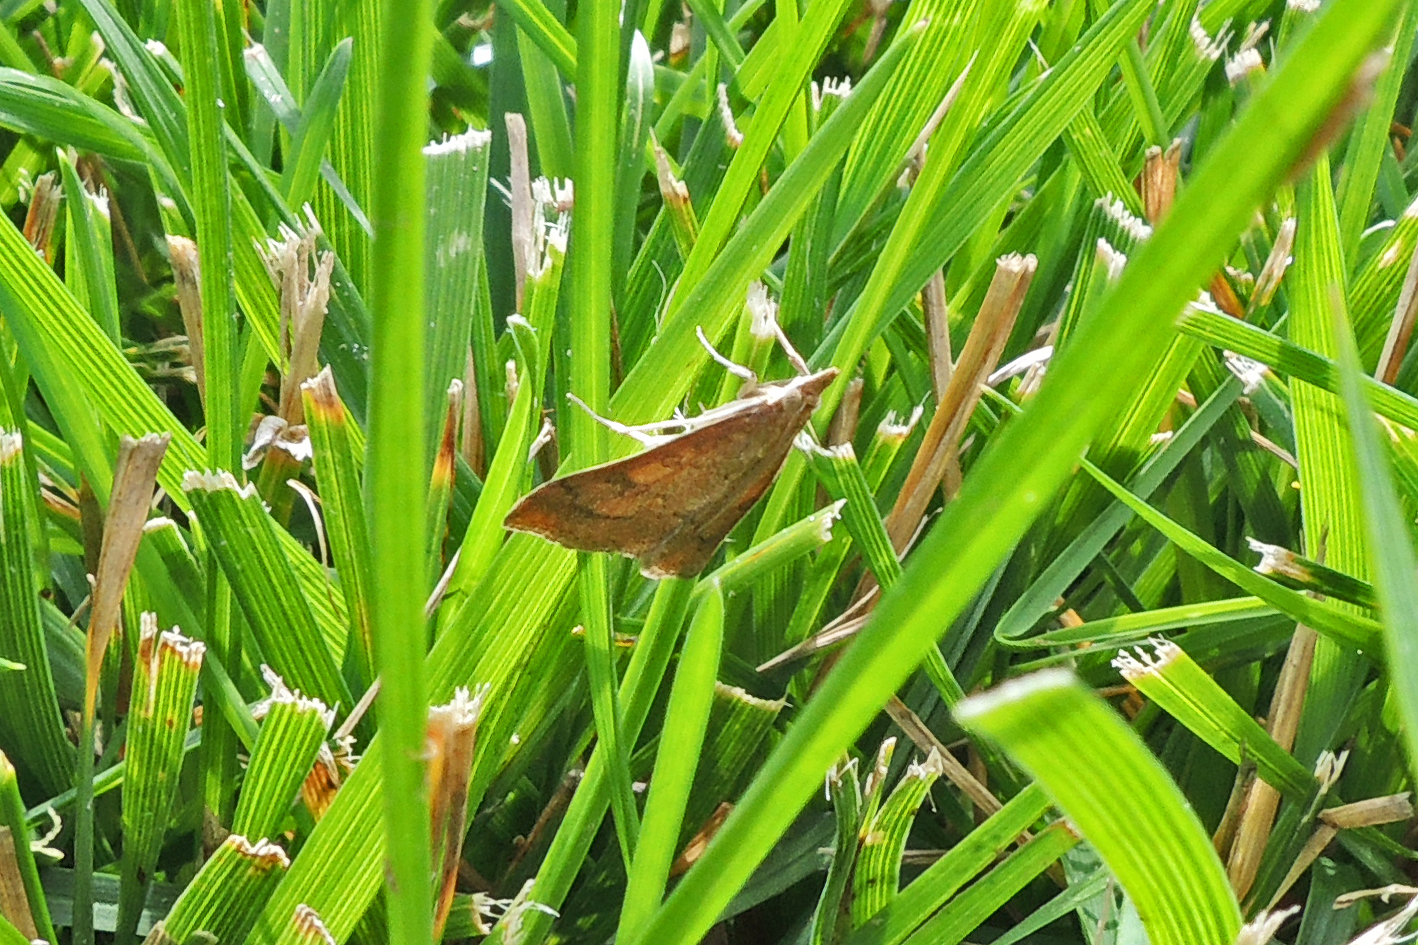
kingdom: Animalia
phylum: Arthropoda
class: Insecta
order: Lepidoptera
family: Crambidae
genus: Udea
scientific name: Udea rubigalis
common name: Celery leaftier moth
